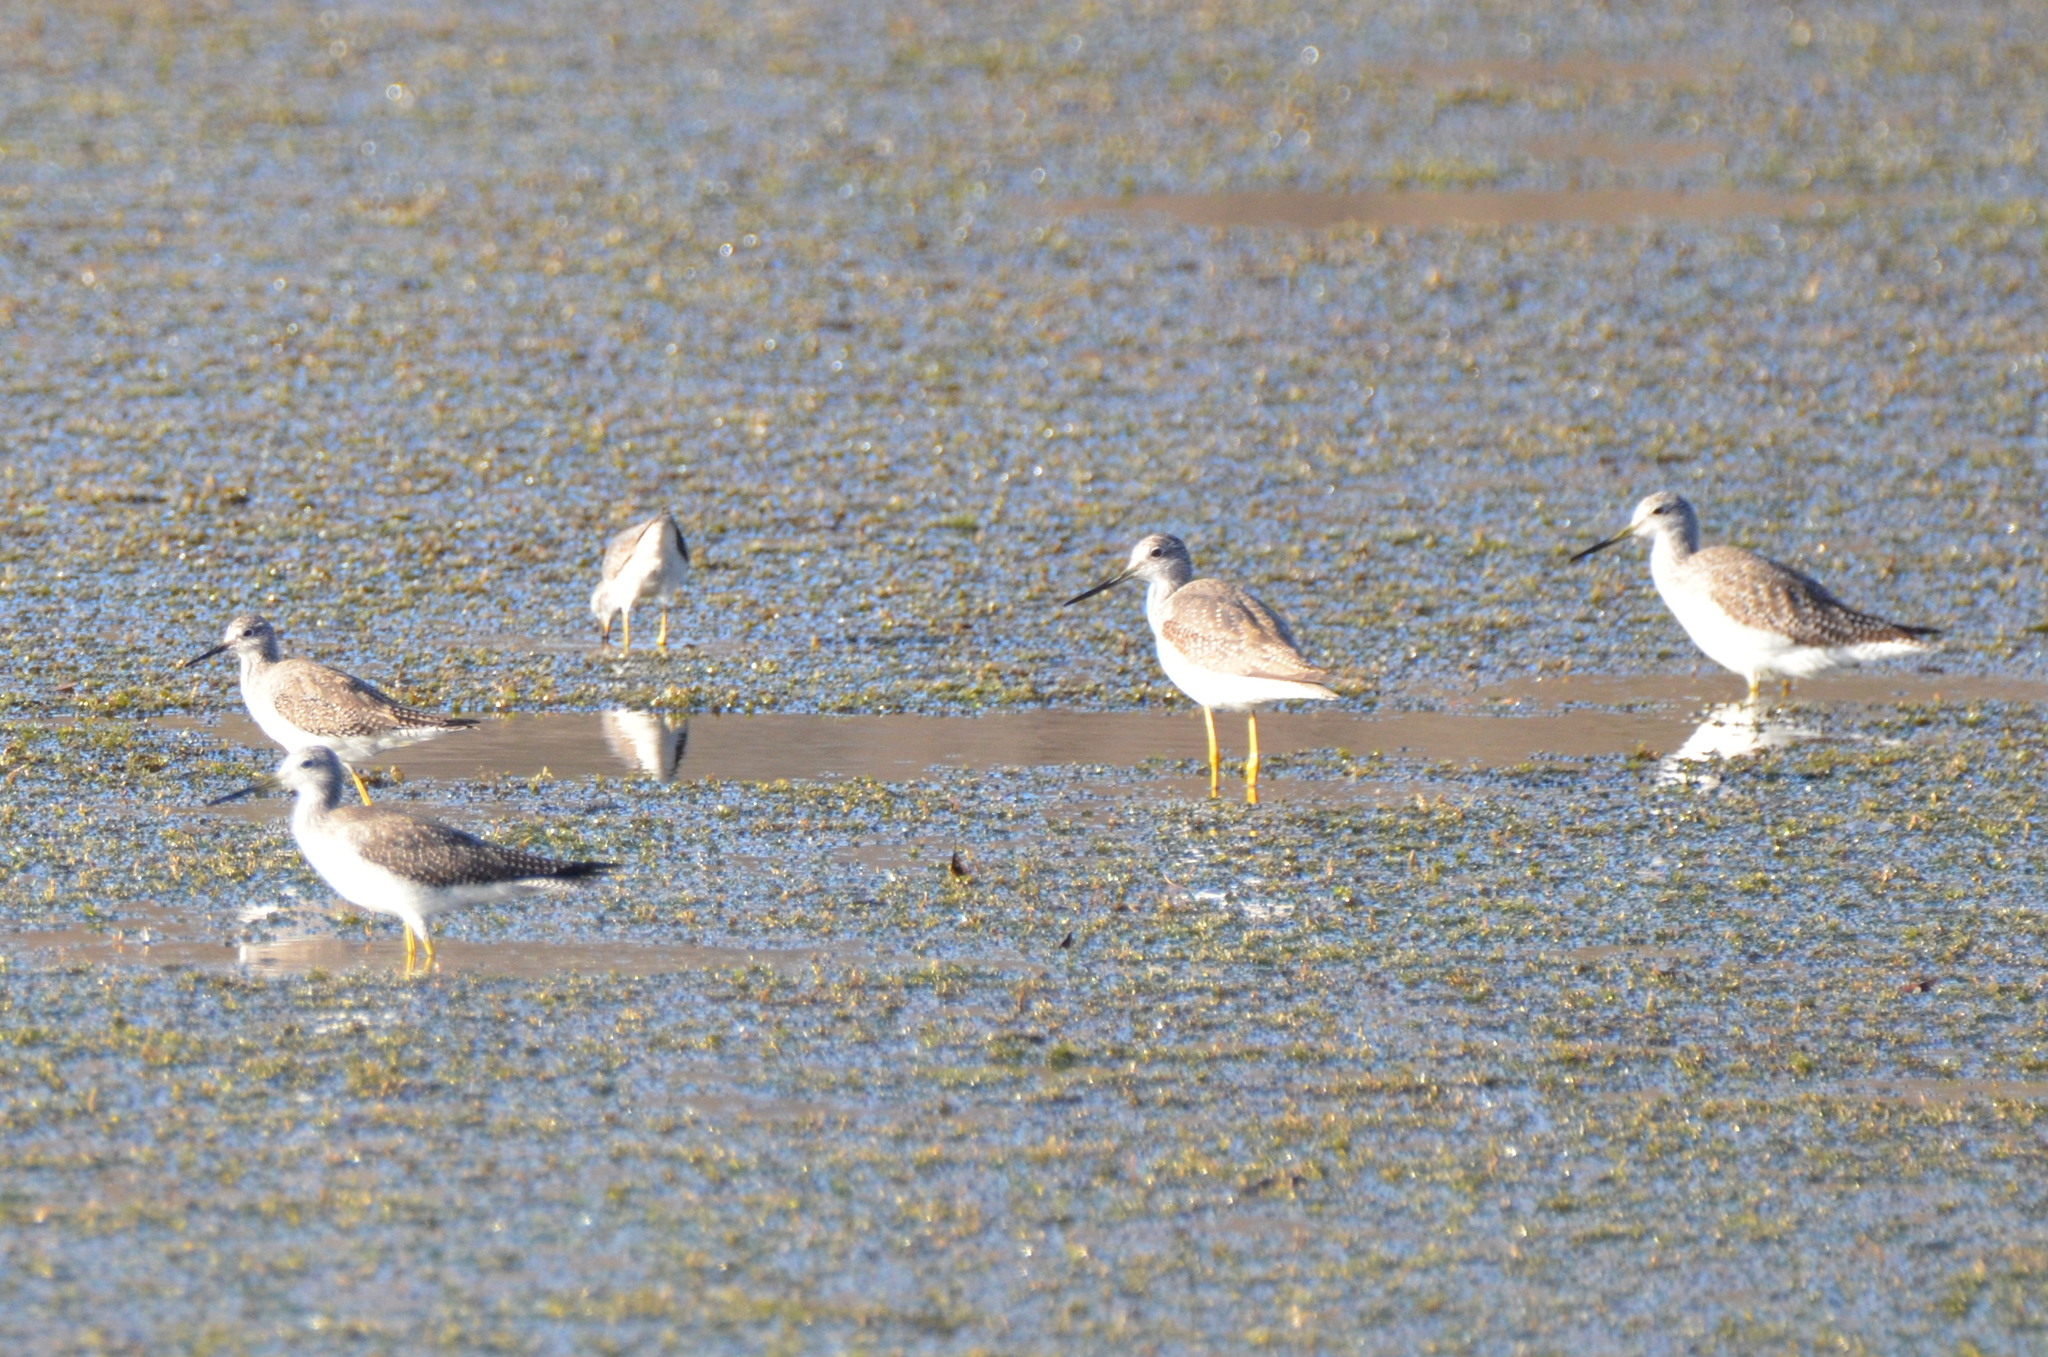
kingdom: Animalia
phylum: Chordata
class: Aves
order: Charadriiformes
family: Scolopacidae
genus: Tringa
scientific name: Tringa melanoleuca
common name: Greater yellowlegs
